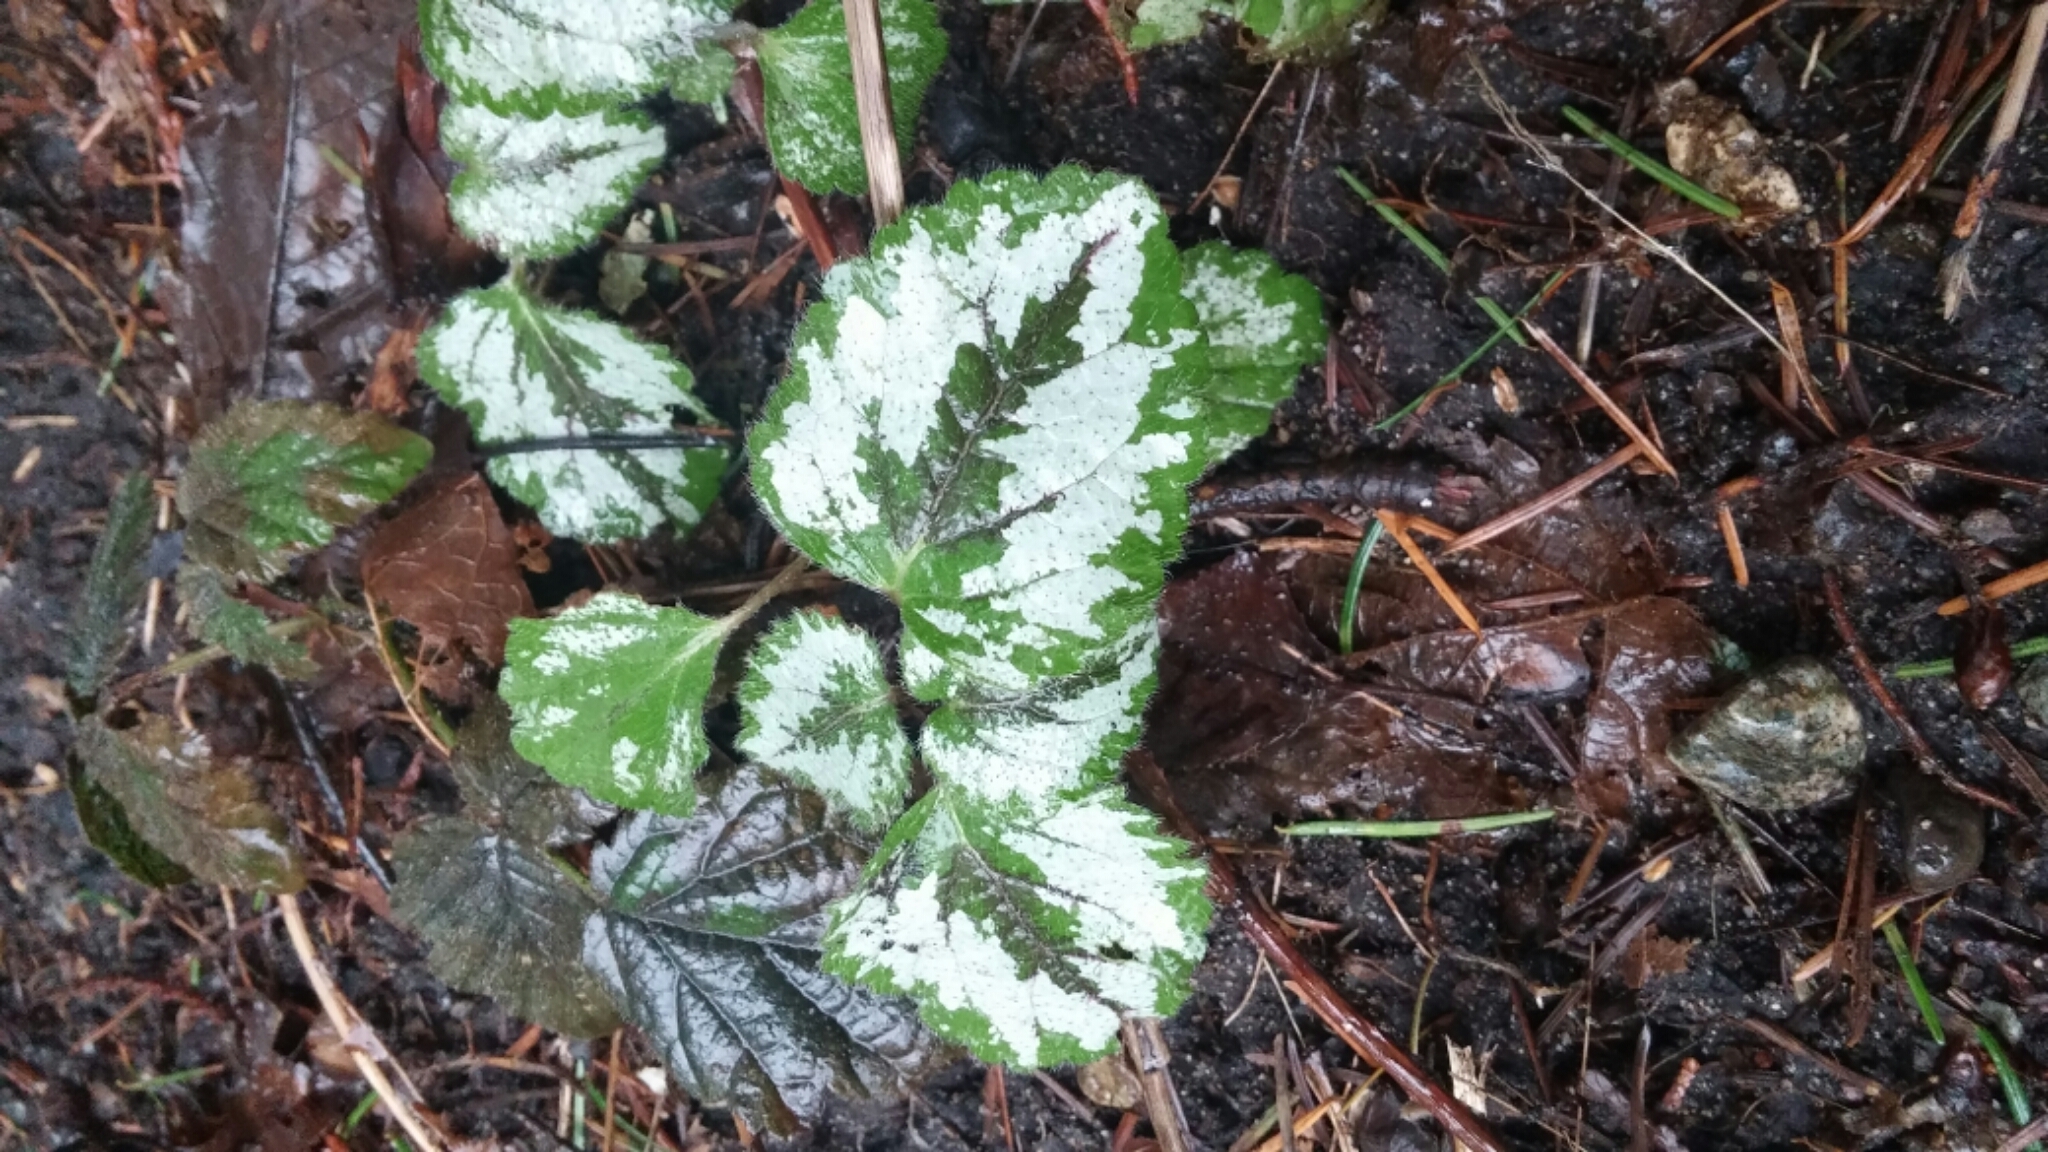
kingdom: Plantae
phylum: Tracheophyta
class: Magnoliopsida
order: Lamiales
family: Lamiaceae
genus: Lamium
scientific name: Lamium galeobdolon
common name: Yellow archangel
